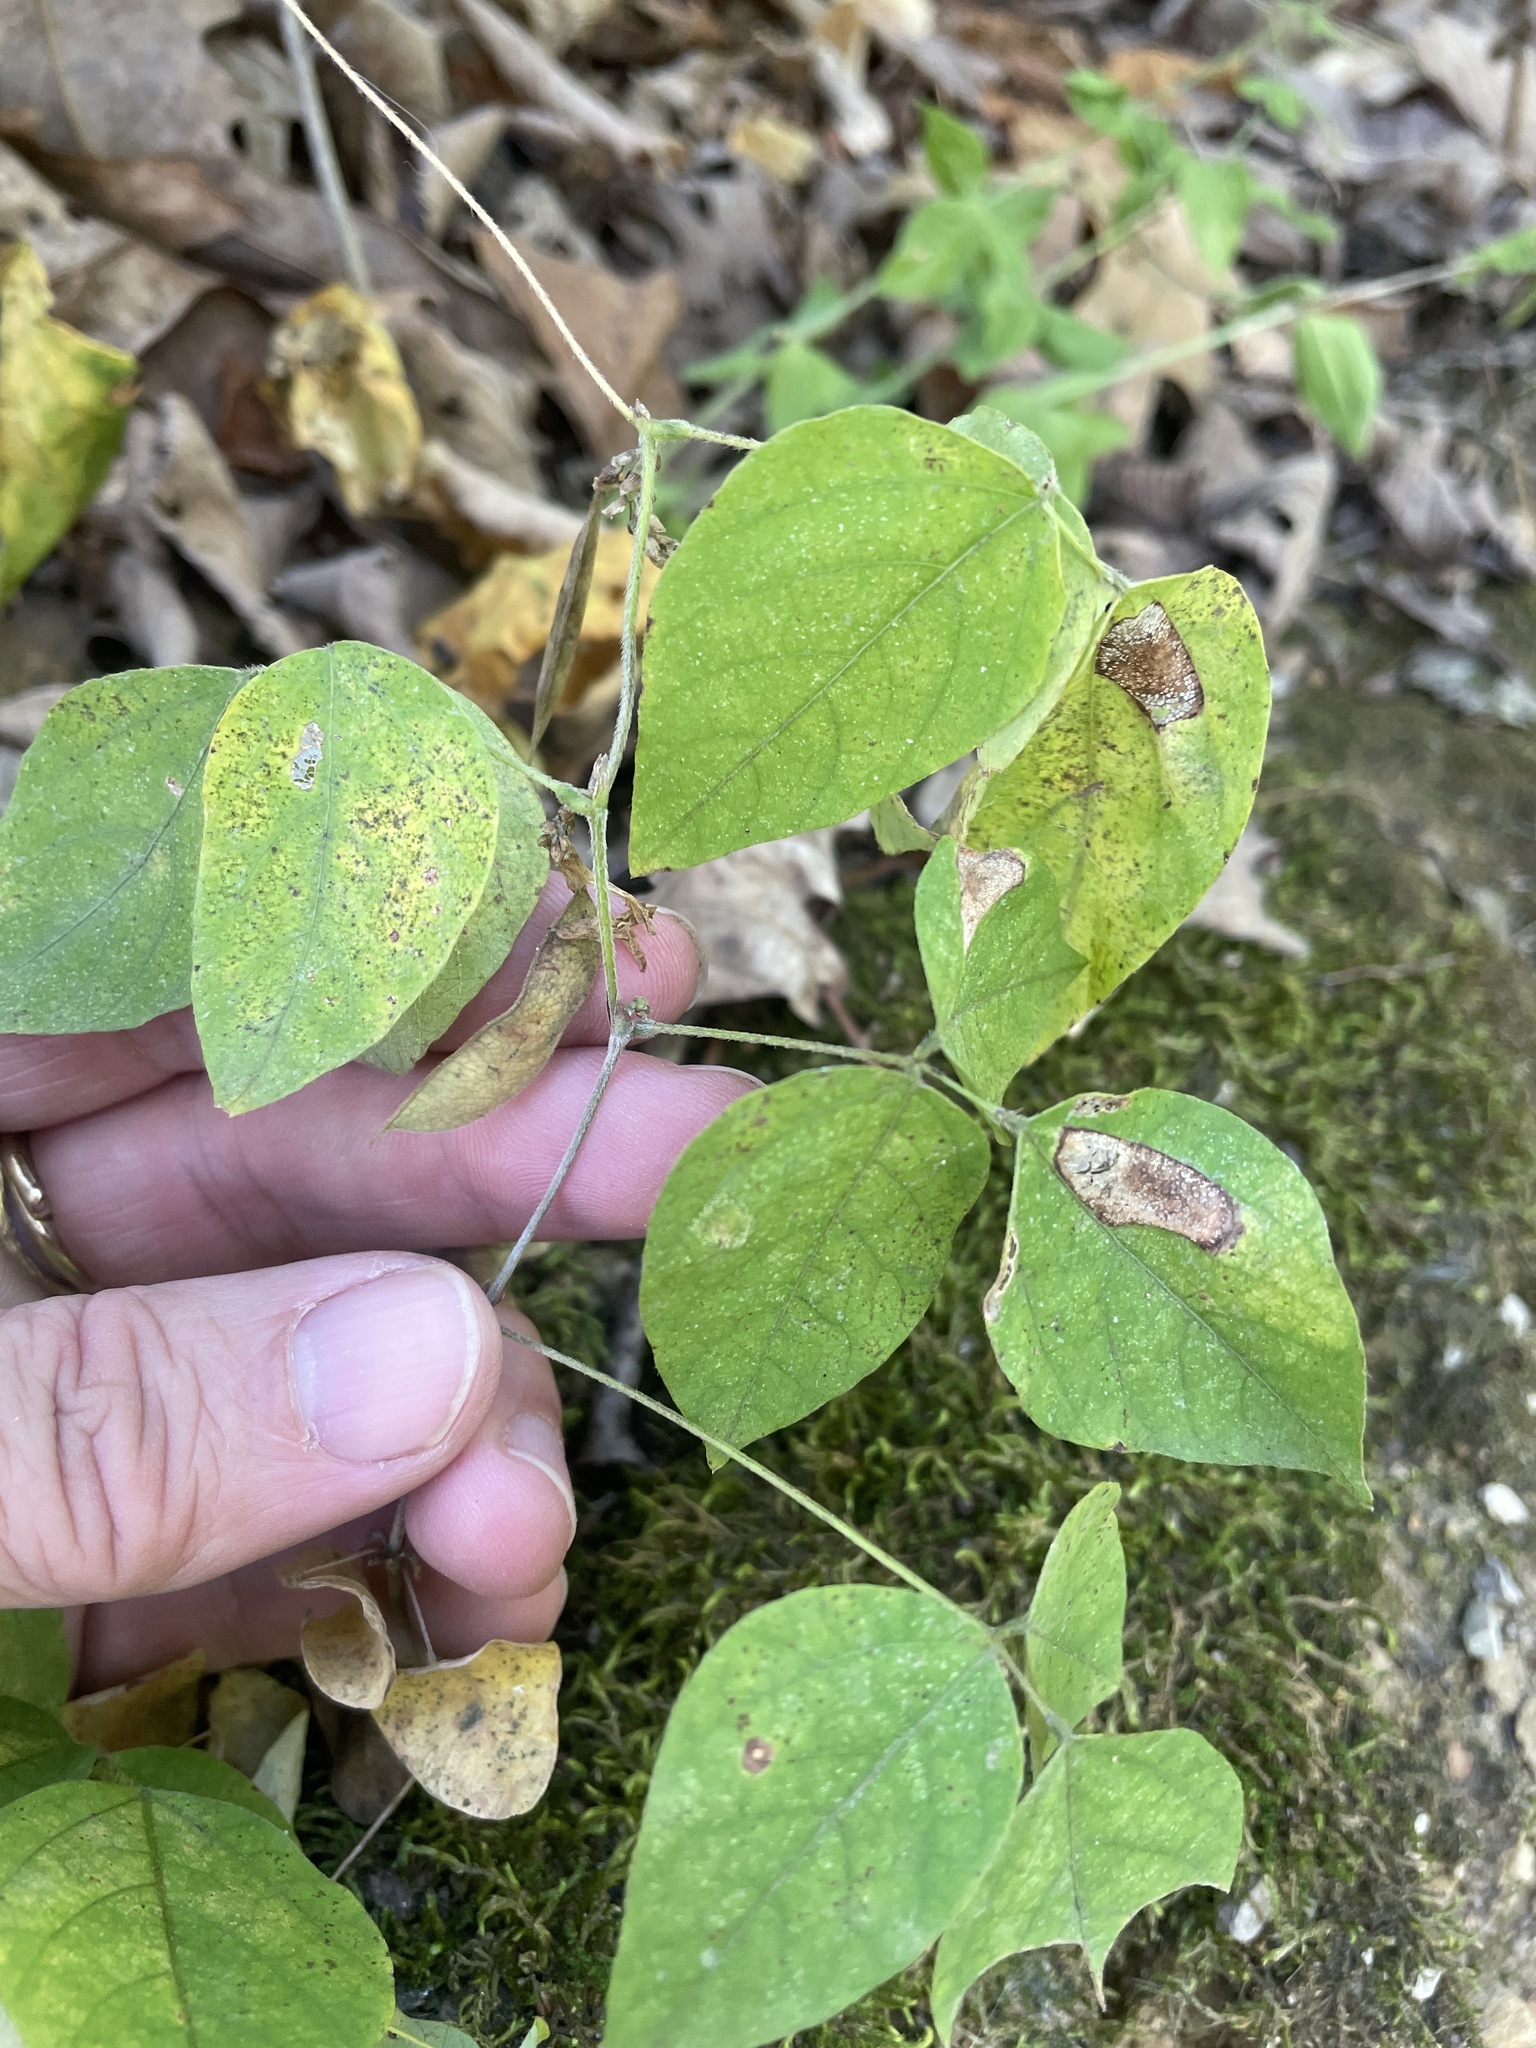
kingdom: Plantae
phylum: Tracheophyta
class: Magnoliopsida
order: Fabales
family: Fabaceae
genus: Amphicarpaea
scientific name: Amphicarpaea bracteata
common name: American hog peanut
